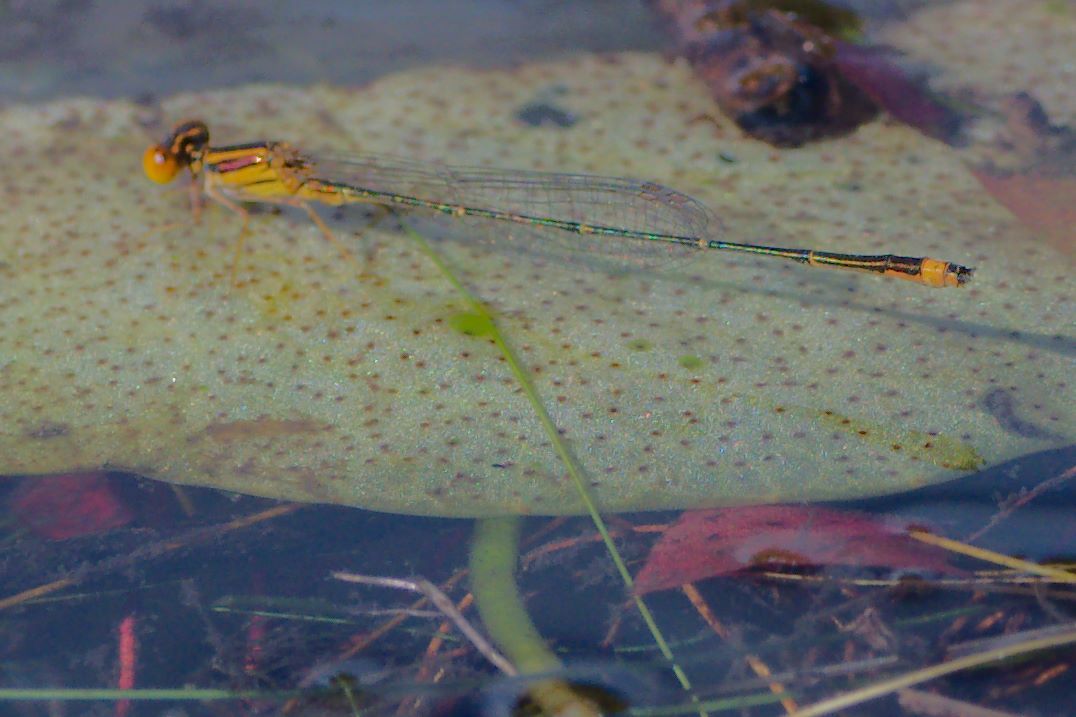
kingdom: Animalia
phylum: Arthropoda
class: Insecta
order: Odonata
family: Coenagrionidae
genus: Enallagma
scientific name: Enallagma pollutum
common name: Florida bluet
